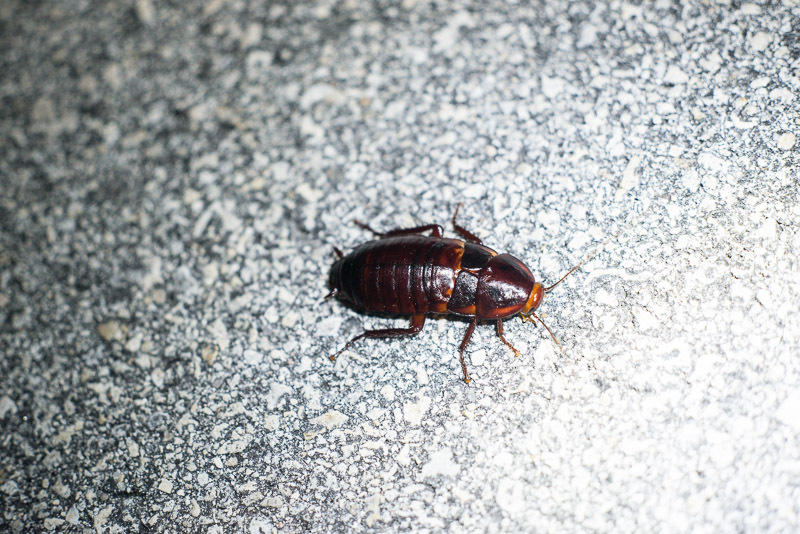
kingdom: Animalia
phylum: Arthropoda
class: Insecta
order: Blattodea
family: Blattidae
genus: Eurycotis
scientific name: Eurycotis floridana
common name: Florida cockroach
